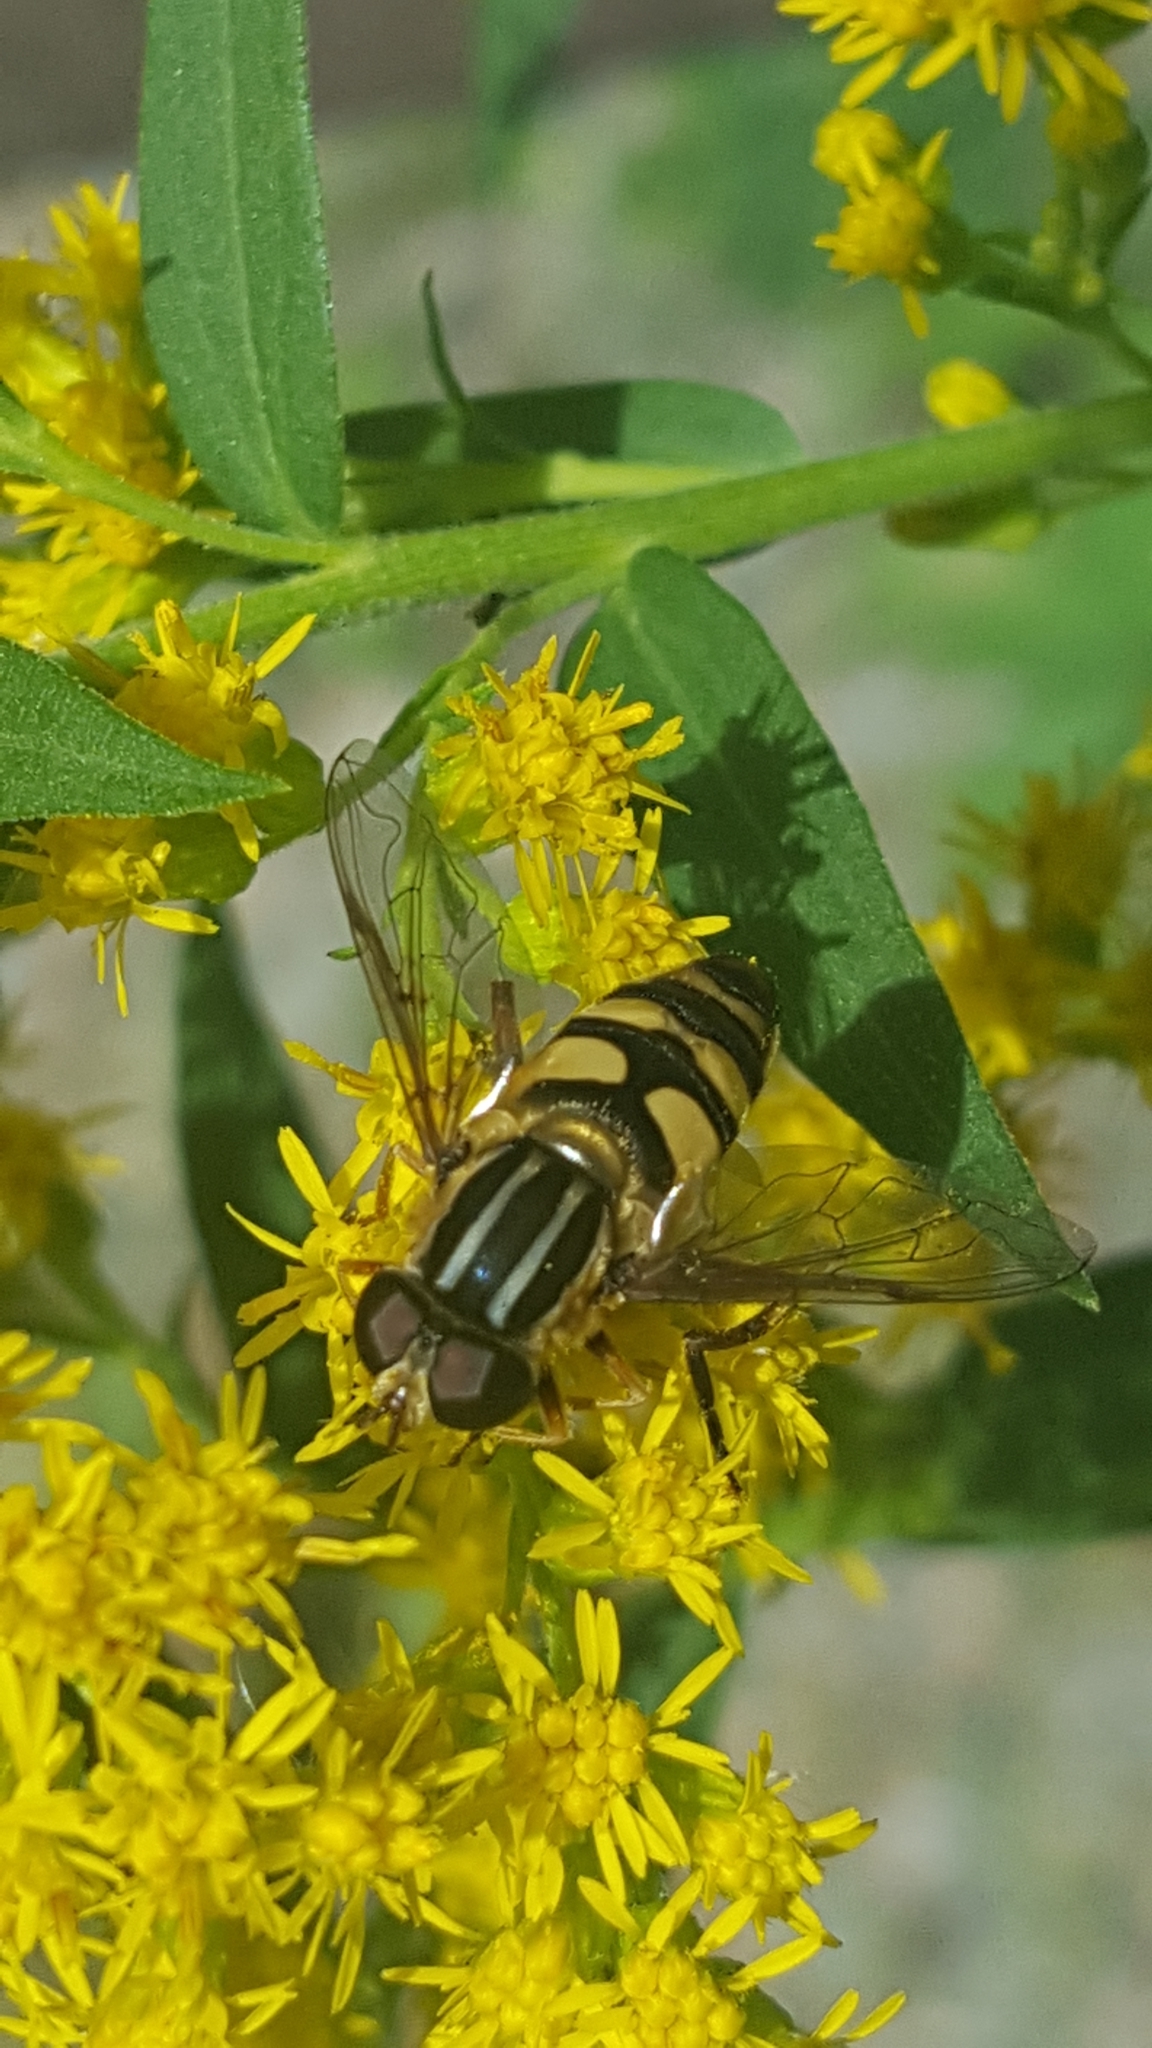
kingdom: Animalia
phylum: Arthropoda
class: Insecta
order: Diptera
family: Syrphidae
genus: Helophilus
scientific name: Helophilus fasciatus
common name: Narrow-headed marsh fly
